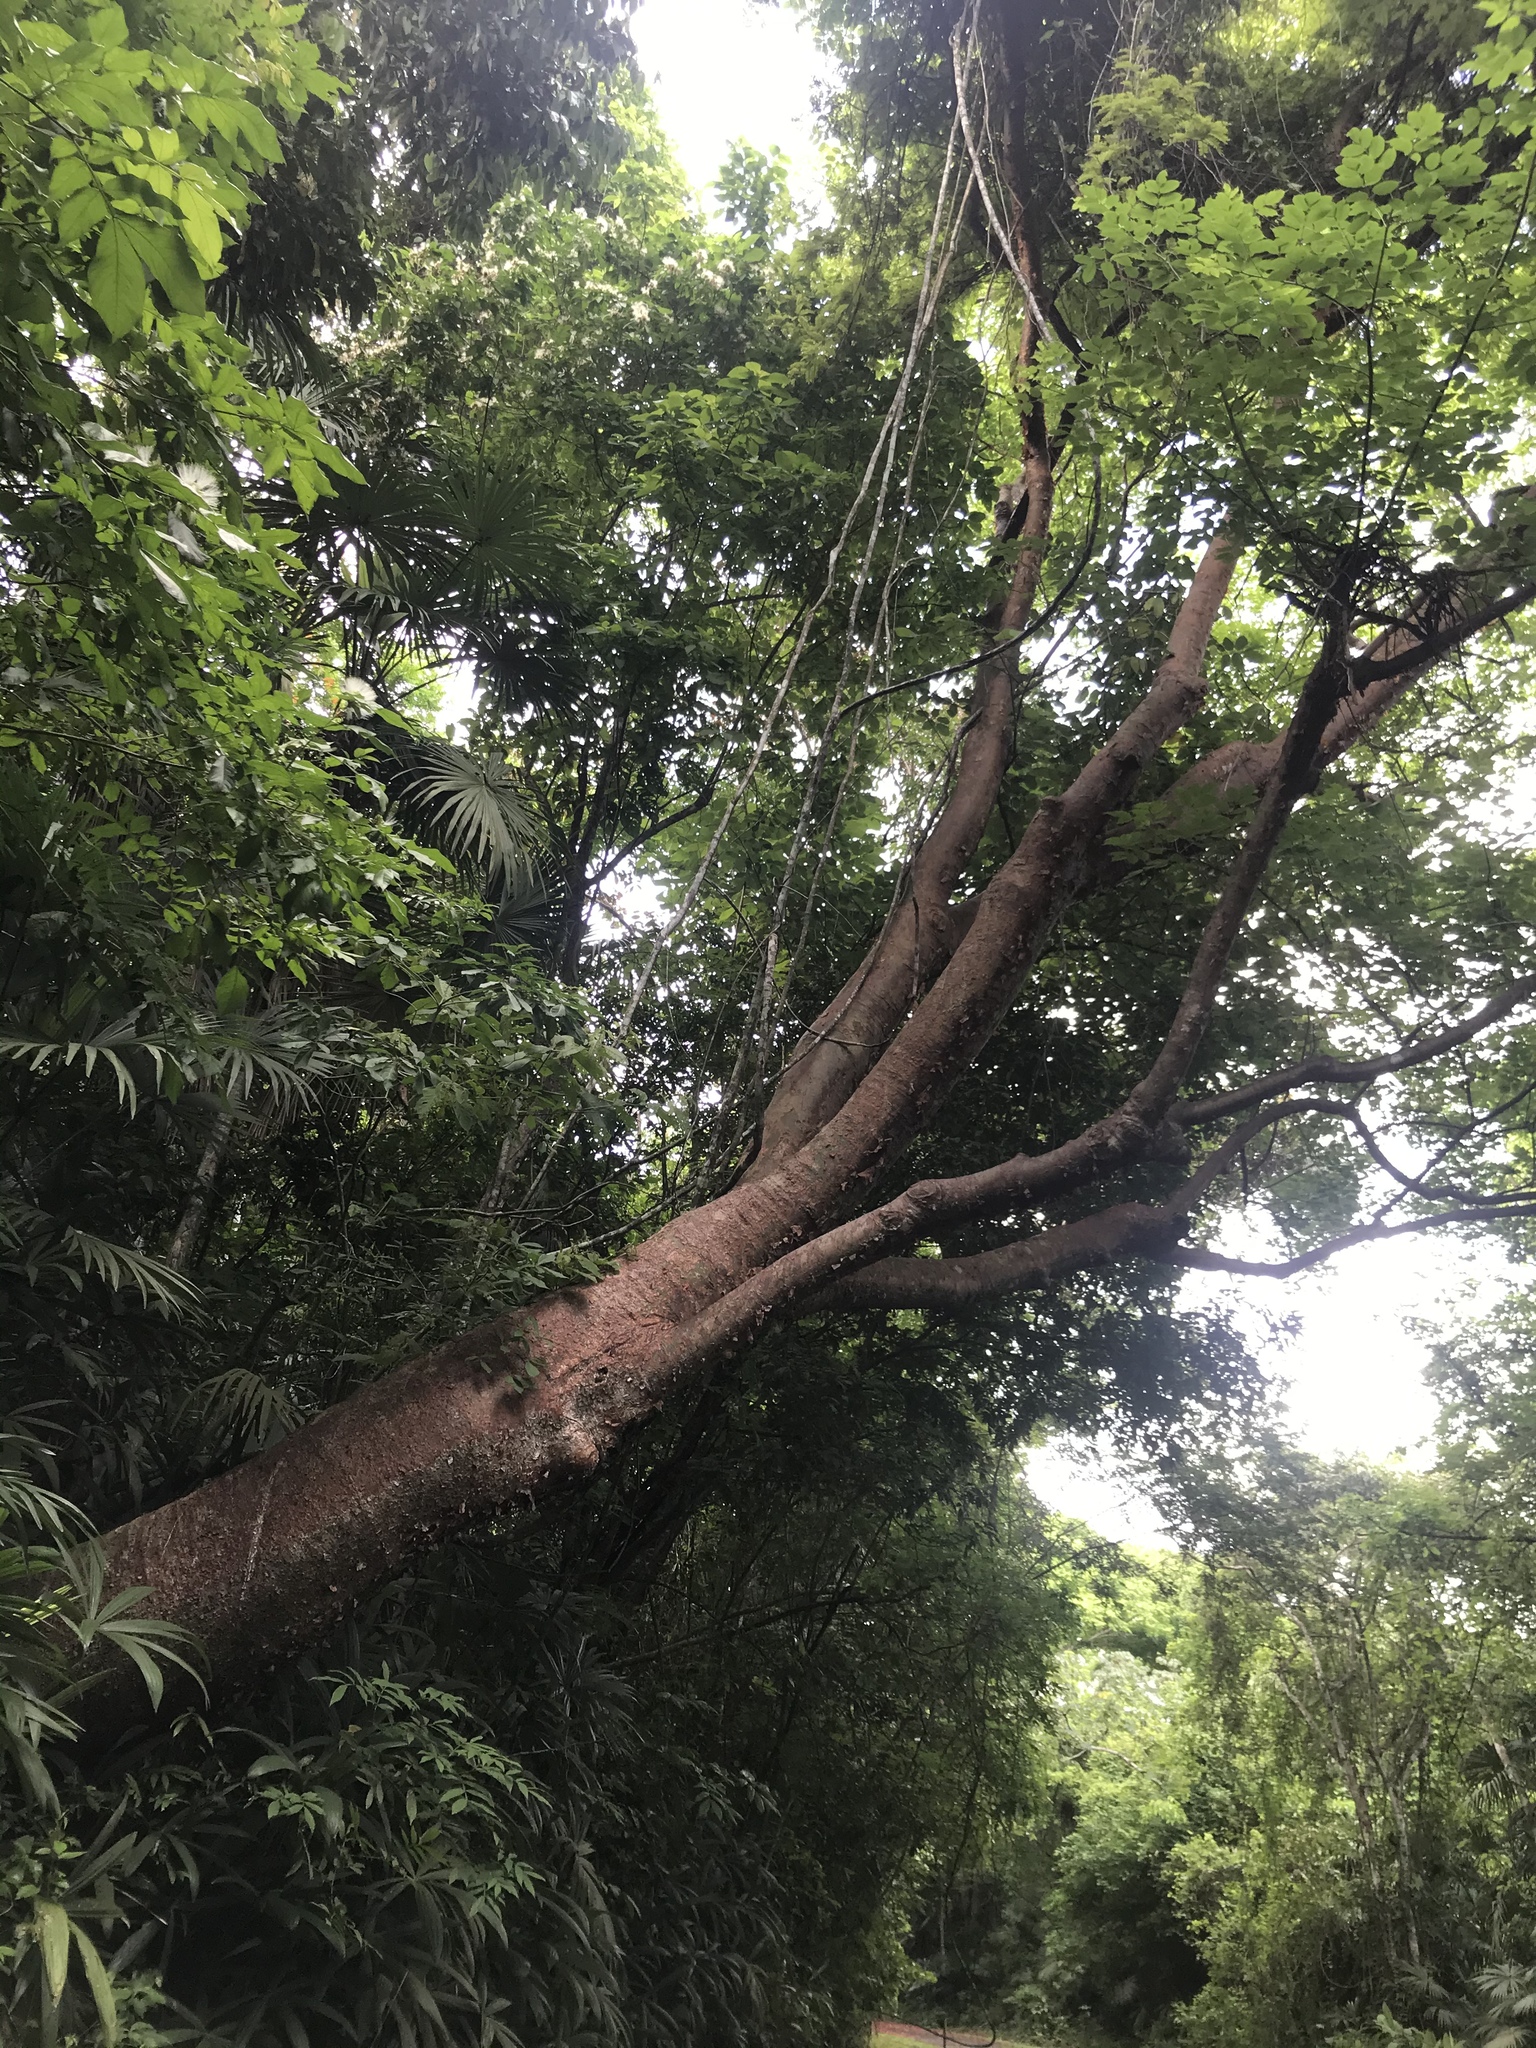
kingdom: Plantae
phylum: Tracheophyta
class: Magnoliopsida
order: Sapindales
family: Burseraceae
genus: Bursera
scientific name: Bursera simaruba
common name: Turpentine tree
